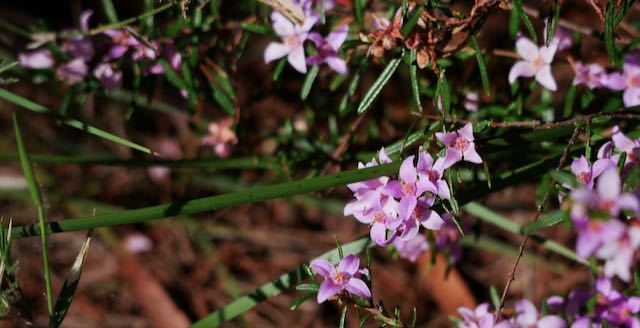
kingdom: Plantae
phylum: Tracheophyta
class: Magnoliopsida
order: Sapindales
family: Rutaceae
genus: Boronia
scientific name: Boronia rosmarinifolia
